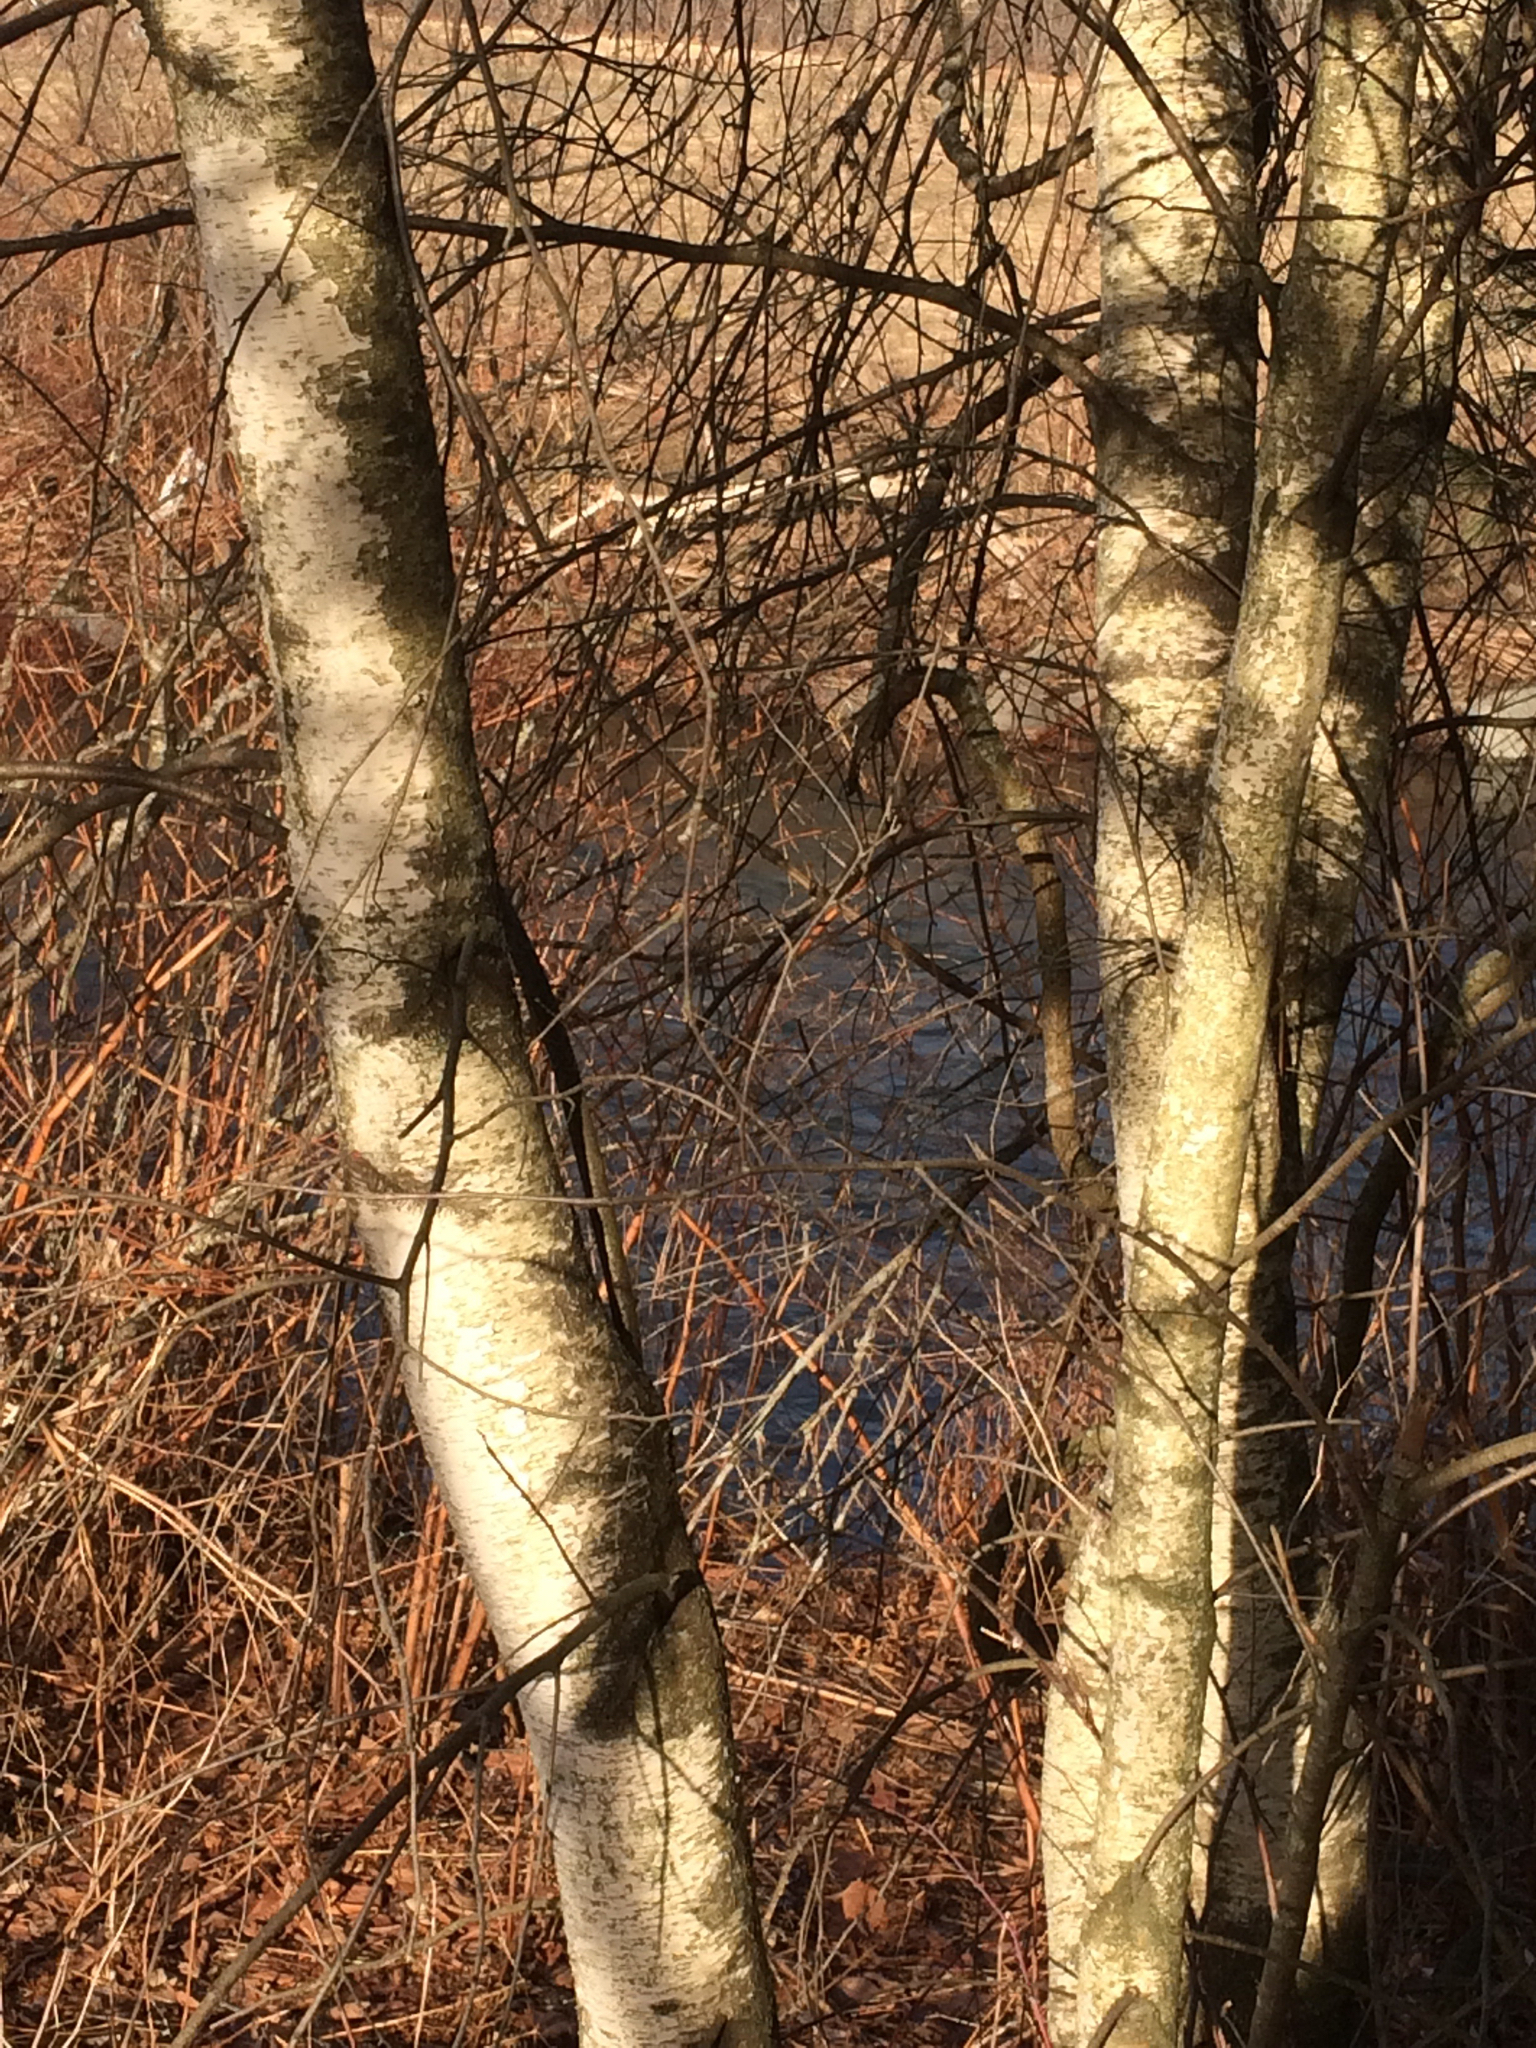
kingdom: Plantae
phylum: Tracheophyta
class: Magnoliopsida
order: Fagales
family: Betulaceae
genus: Betula
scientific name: Betula populifolia
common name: Fire birch
